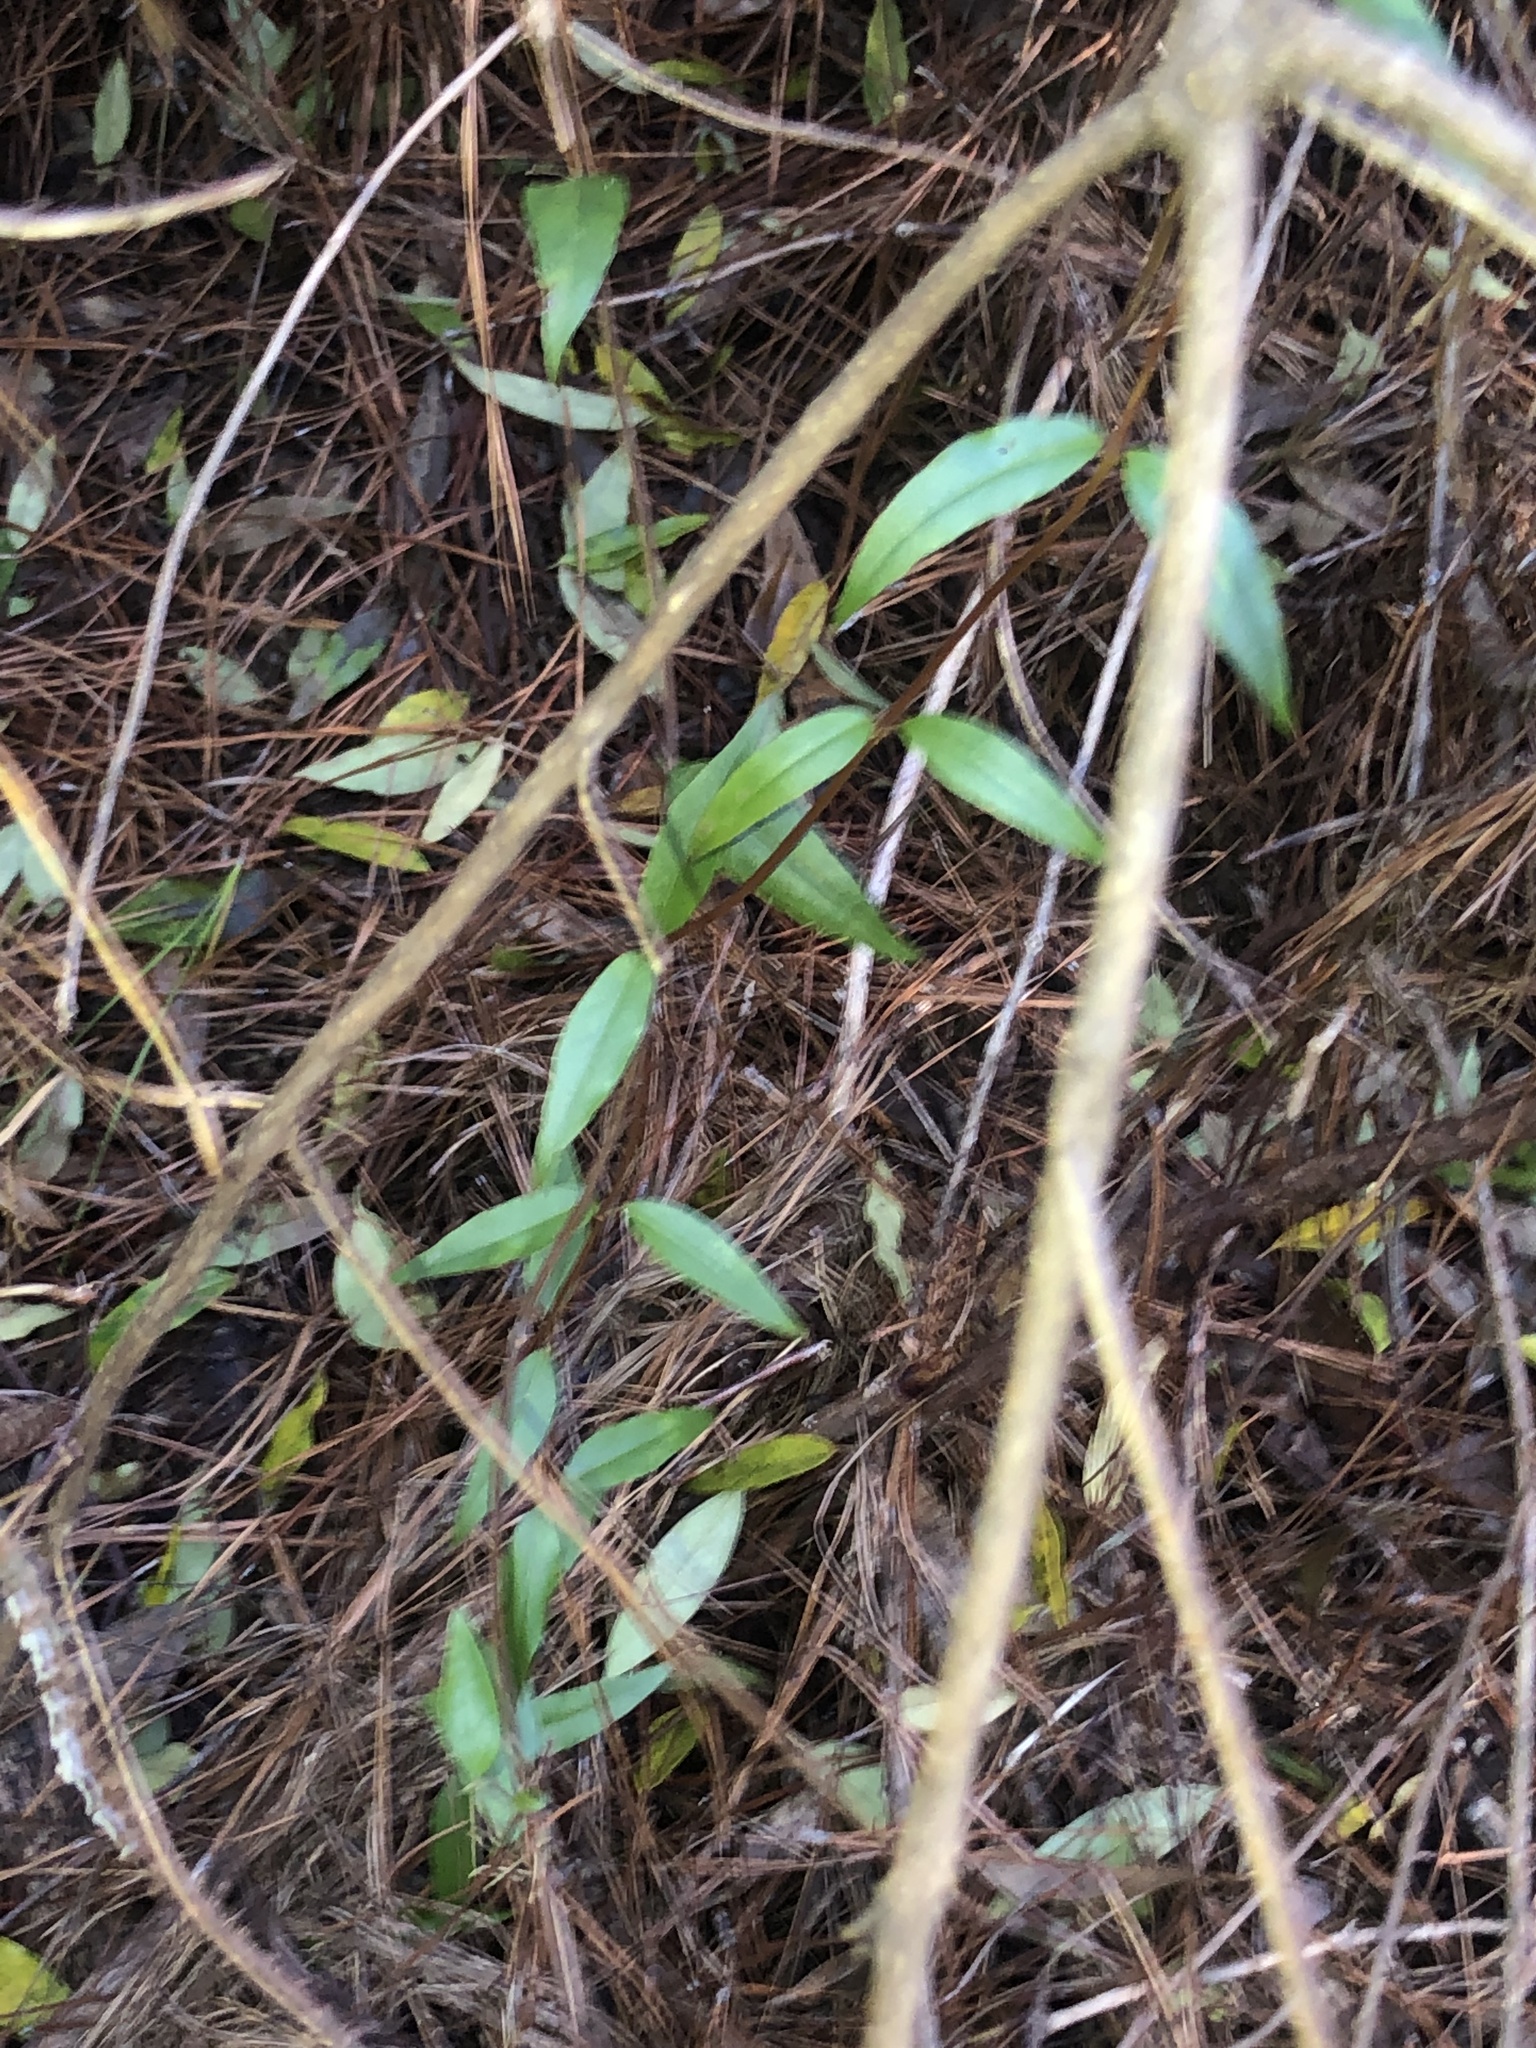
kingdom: Plantae
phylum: Tracheophyta
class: Magnoliopsida
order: Gentianales
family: Gelsemiaceae
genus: Gelsemium
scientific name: Gelsemium sempervirens
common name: Carolina-jasmine
